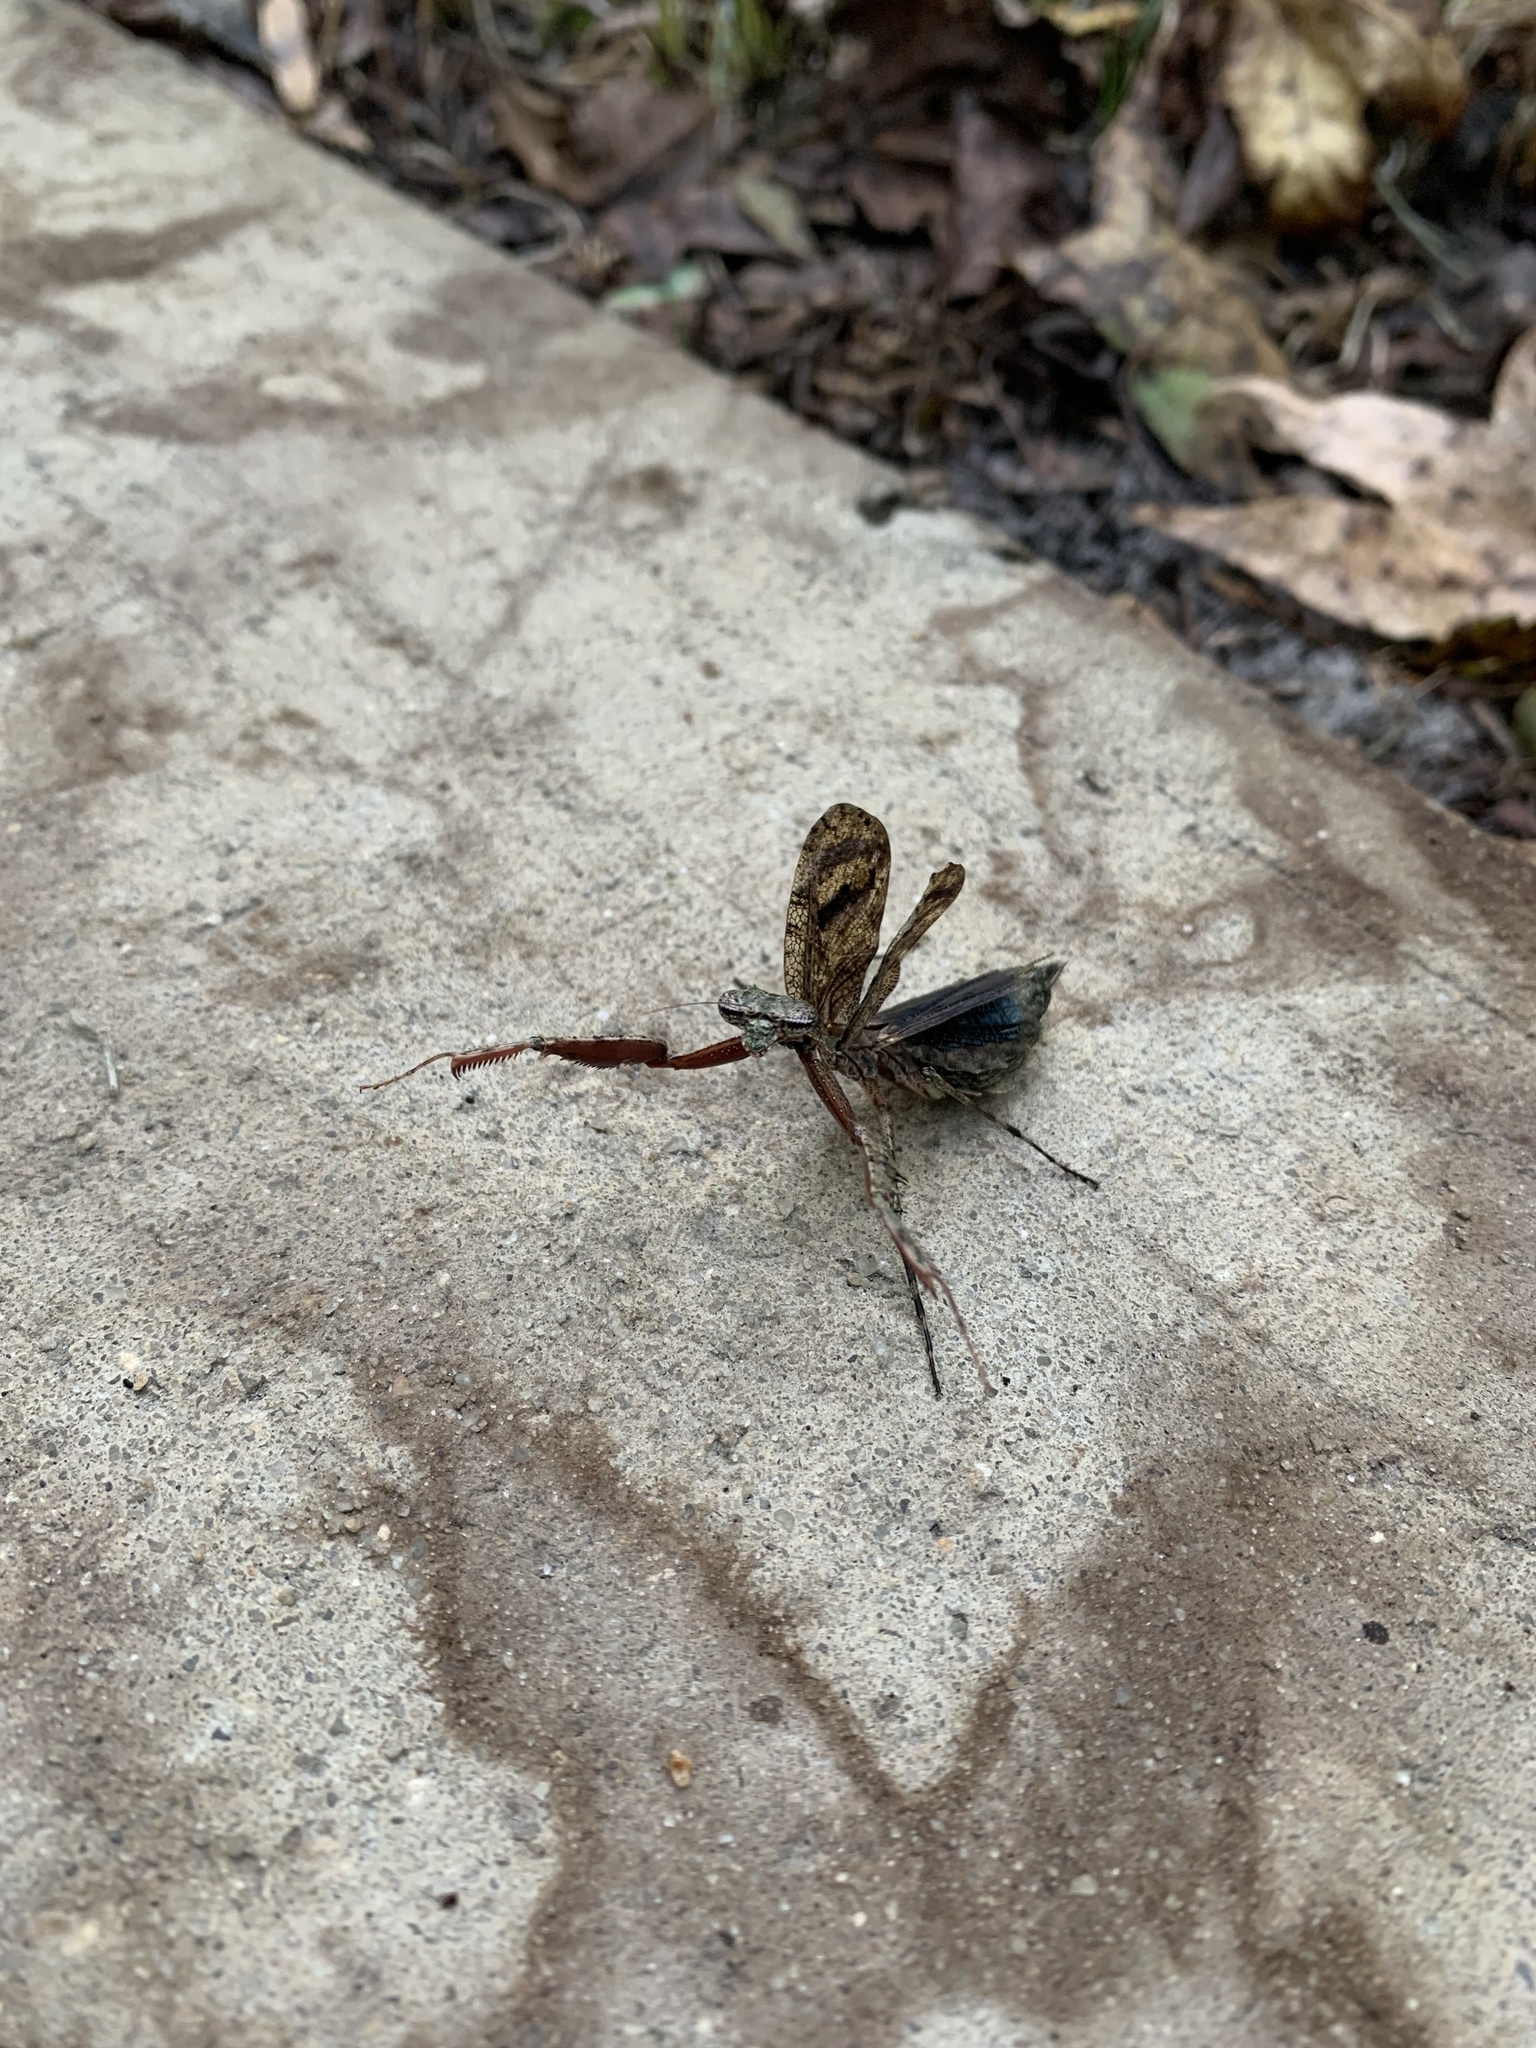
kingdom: Animalia
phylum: Arthropoda
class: Insecta
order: Mantodea
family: Epaphroditidae
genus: Gonatista
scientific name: Gonatista grisea
